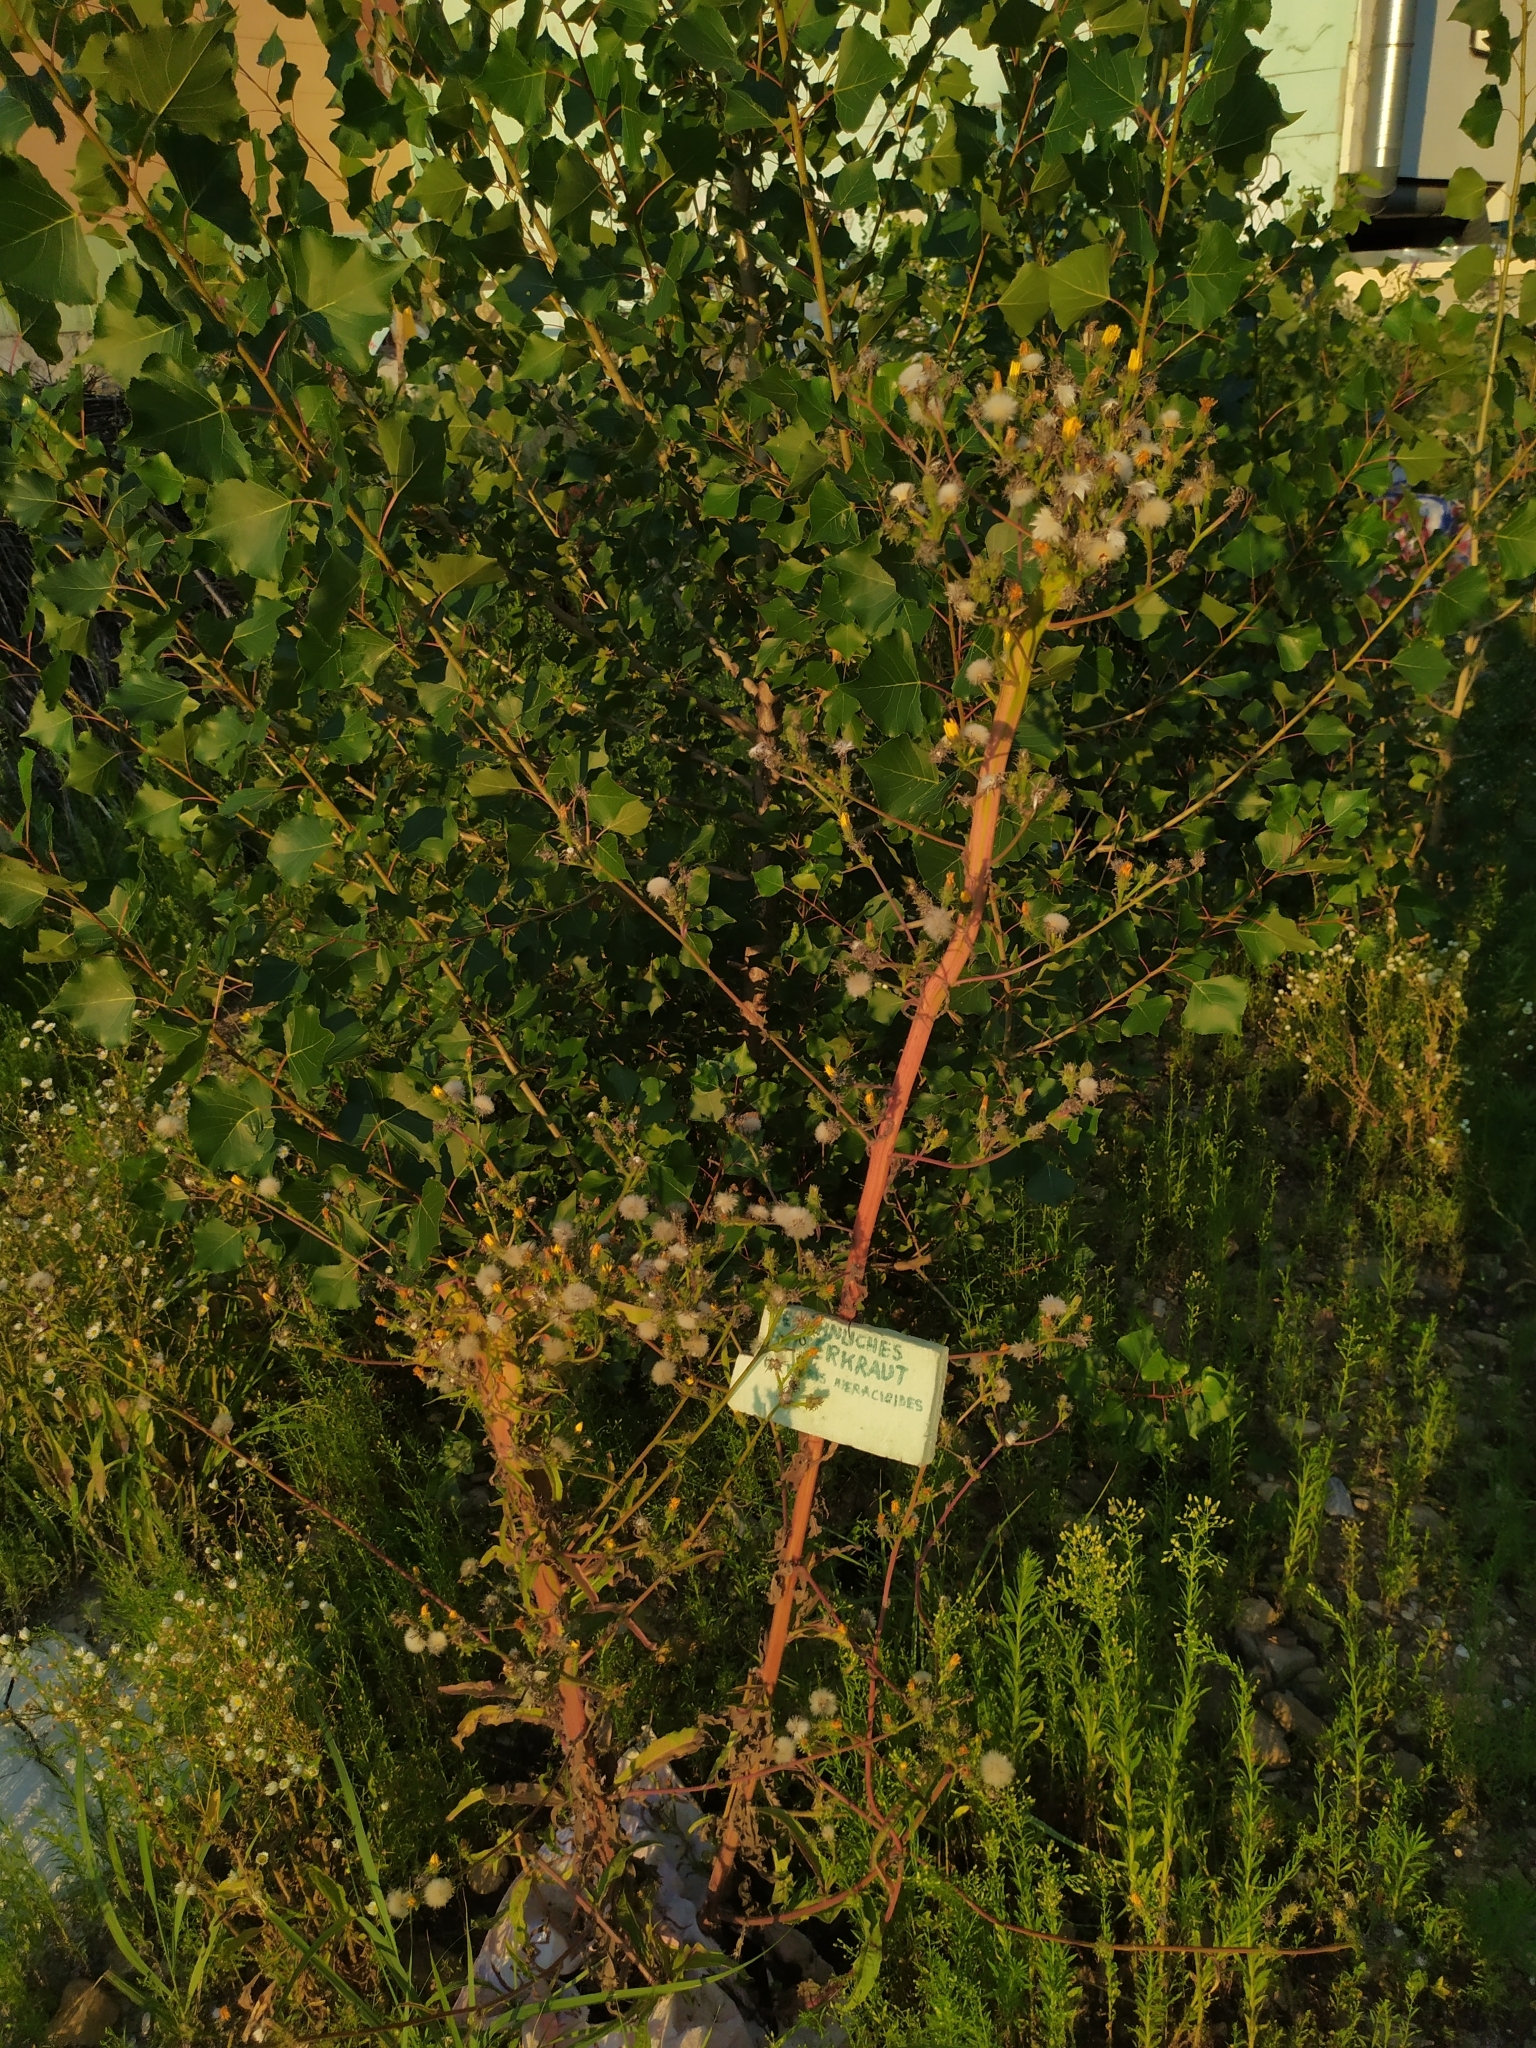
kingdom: Plantae
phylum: Tracheophyta
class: Magnoliopsida
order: Asterales
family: Asteraceae
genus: Picris
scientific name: Picris hieracioides
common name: Hawkweed oxtongue
